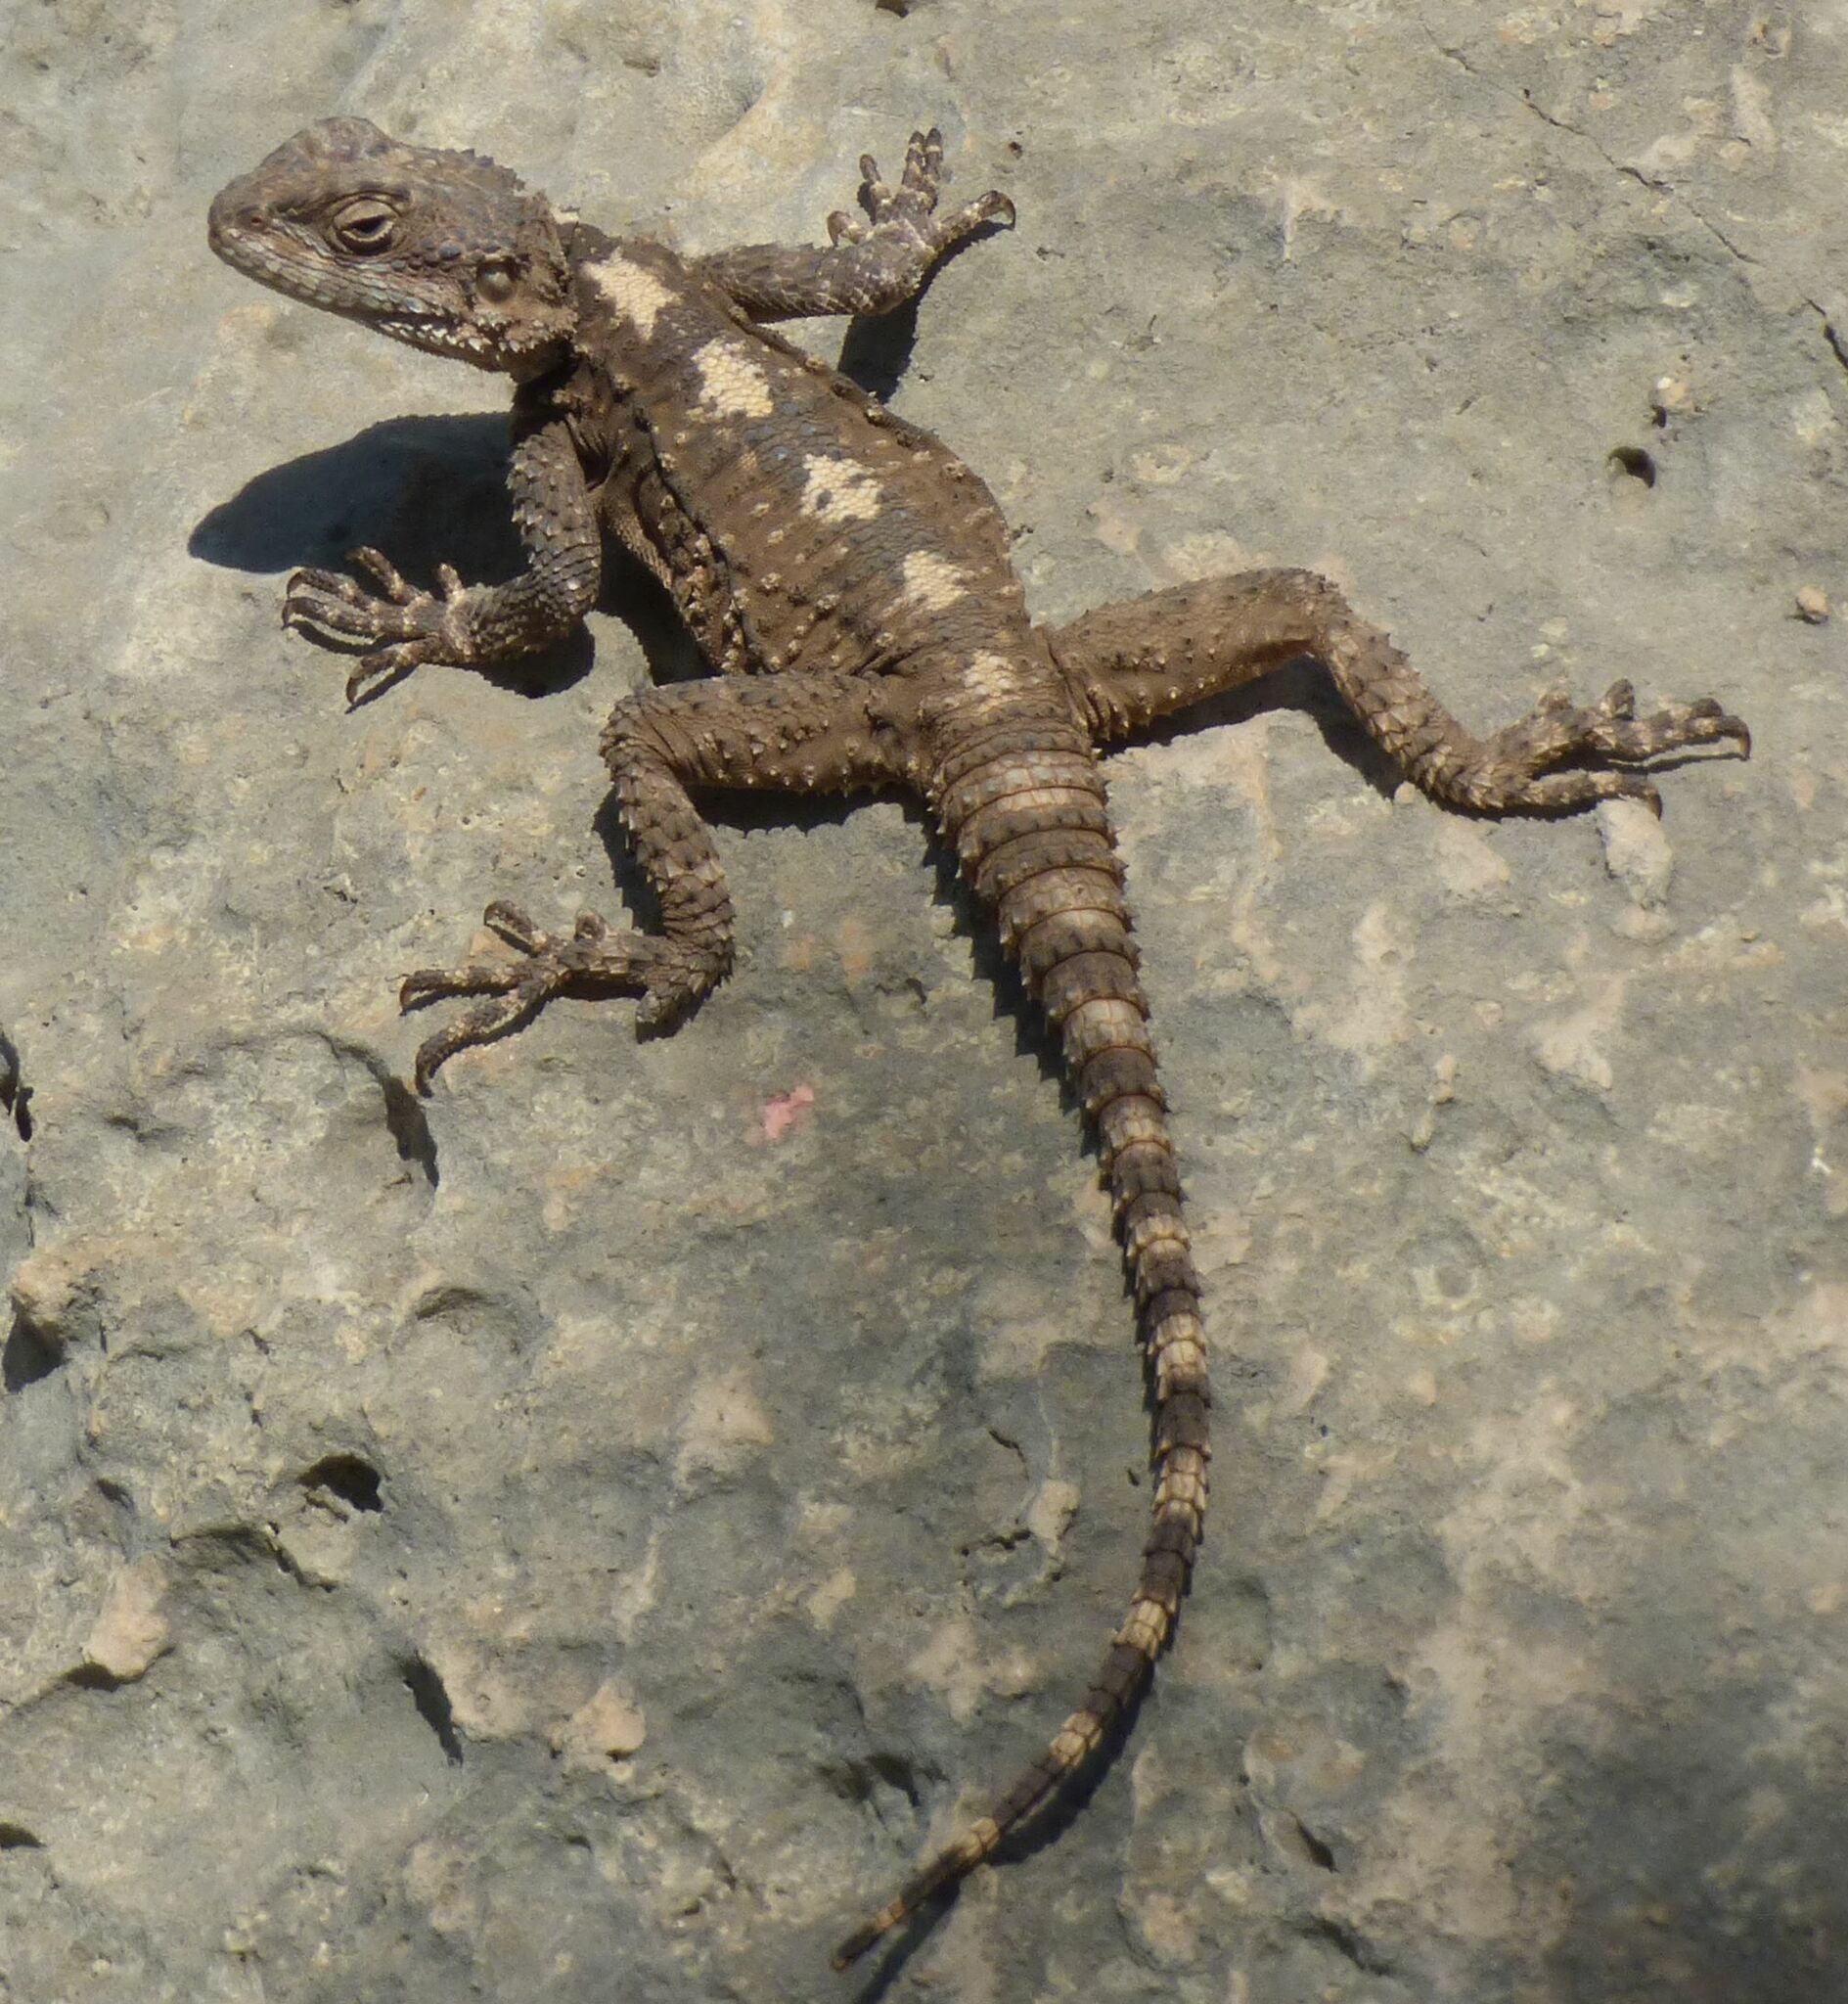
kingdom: Animalia
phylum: Chordata
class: Squamata
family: Agamidae
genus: Stellagama
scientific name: Stellagama stellio
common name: Starred agama
